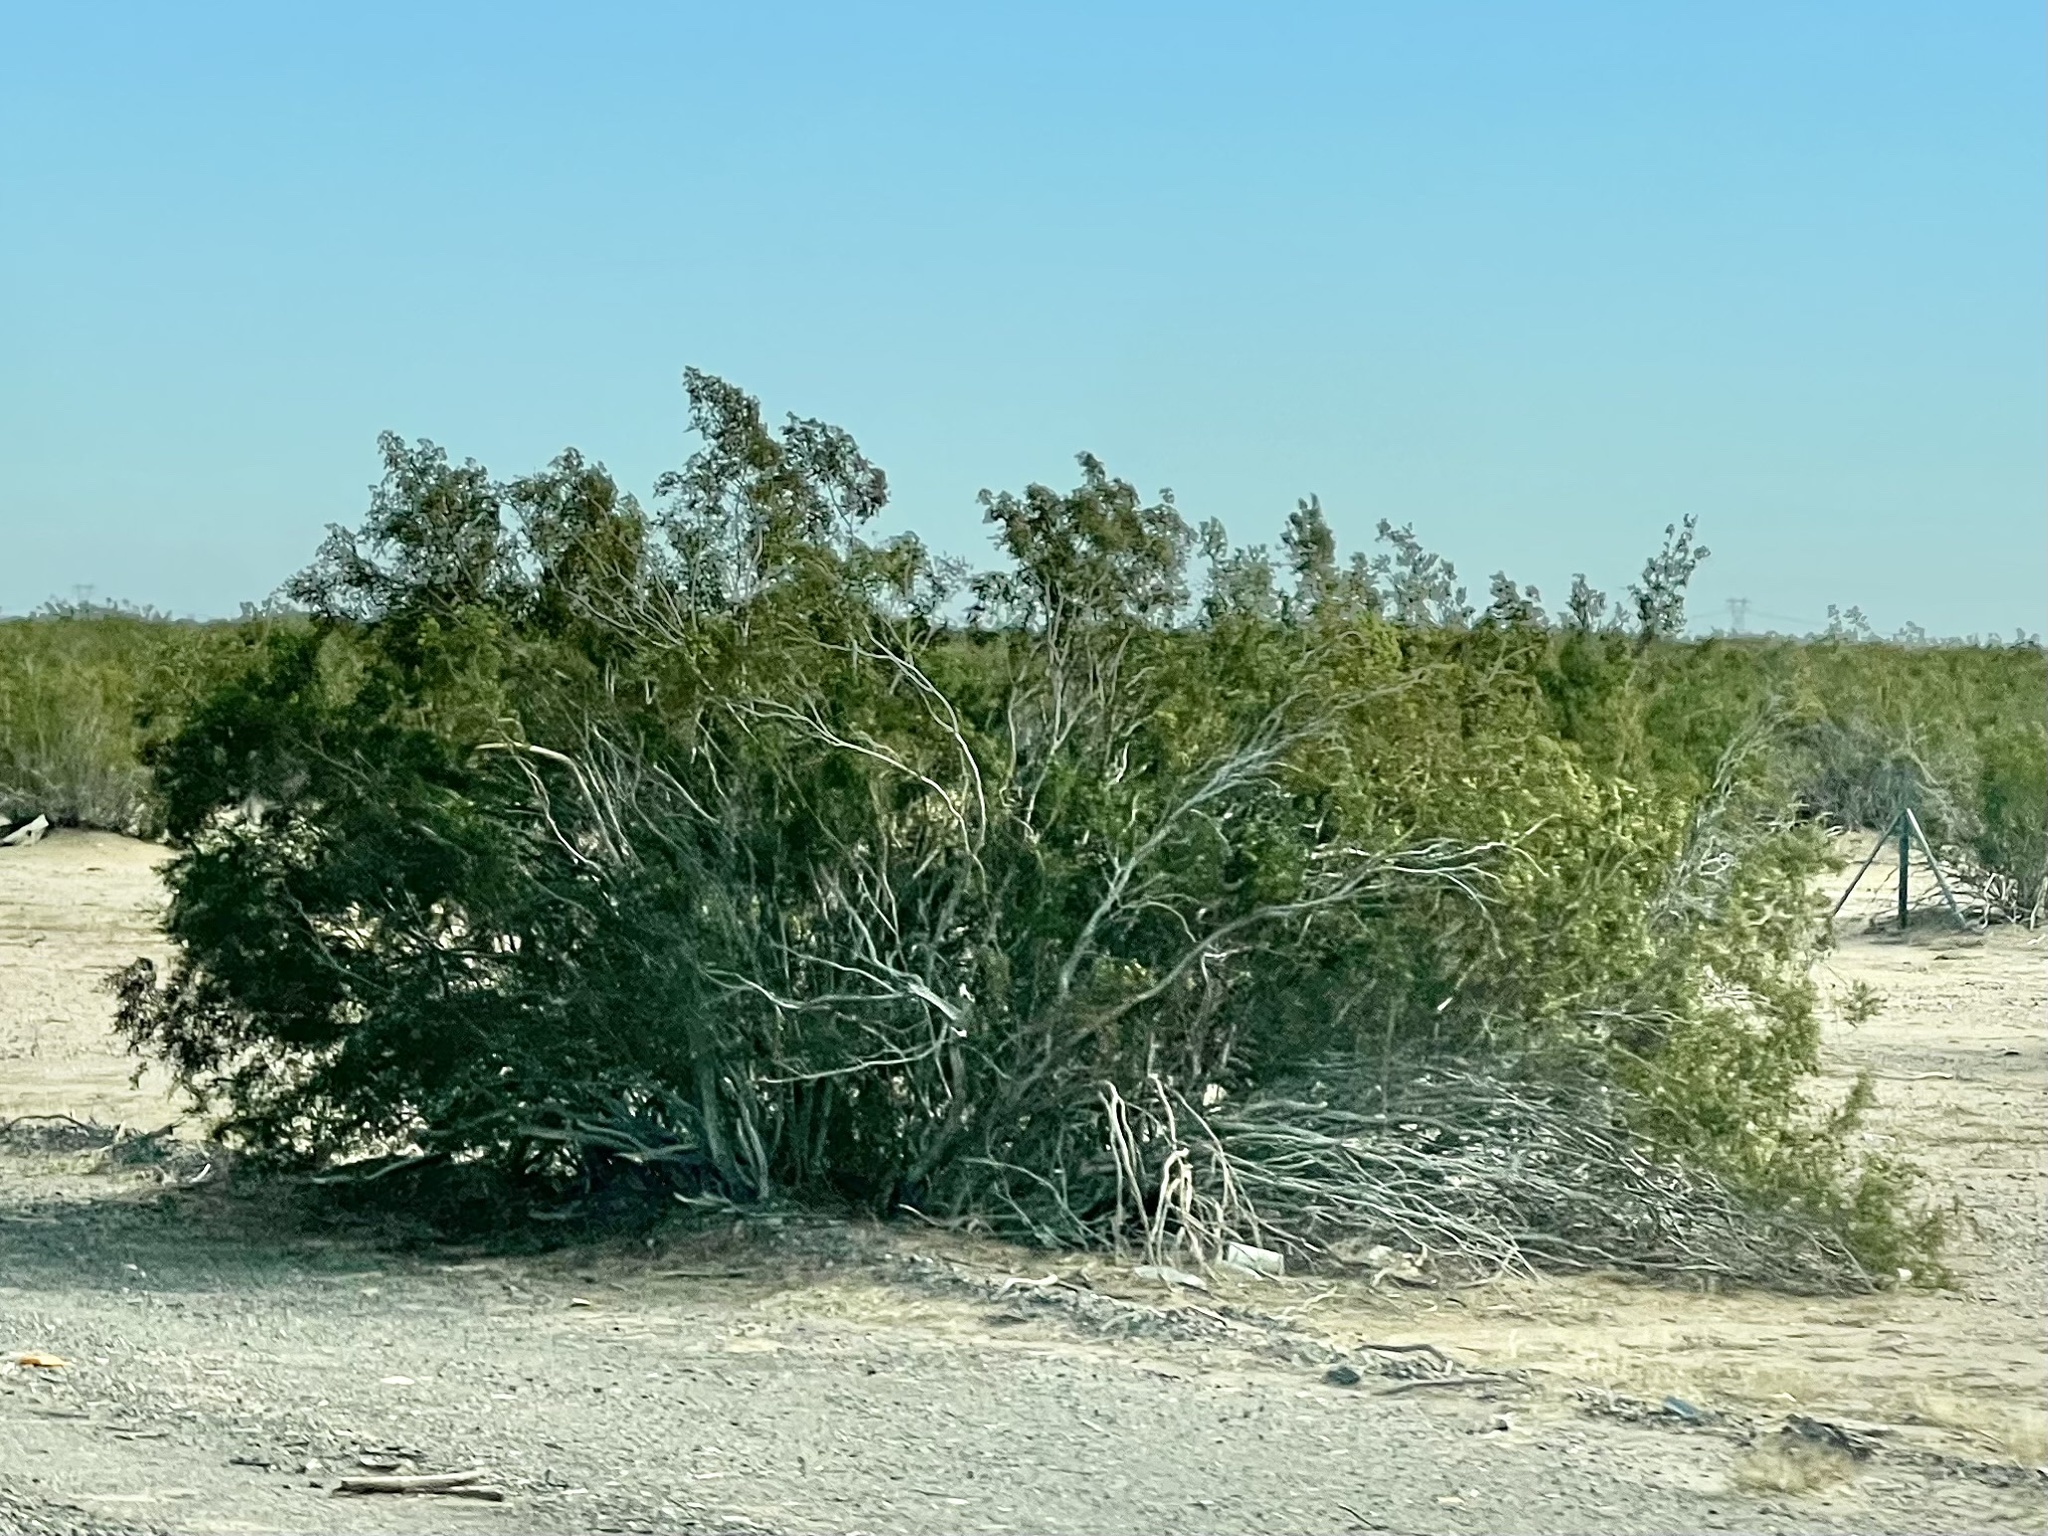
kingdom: Plantae
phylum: Tracheophyta
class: Magnoliopsida
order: Zygophyllales
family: Zygophyllaceae
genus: Larrea
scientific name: Larrea tridentata
